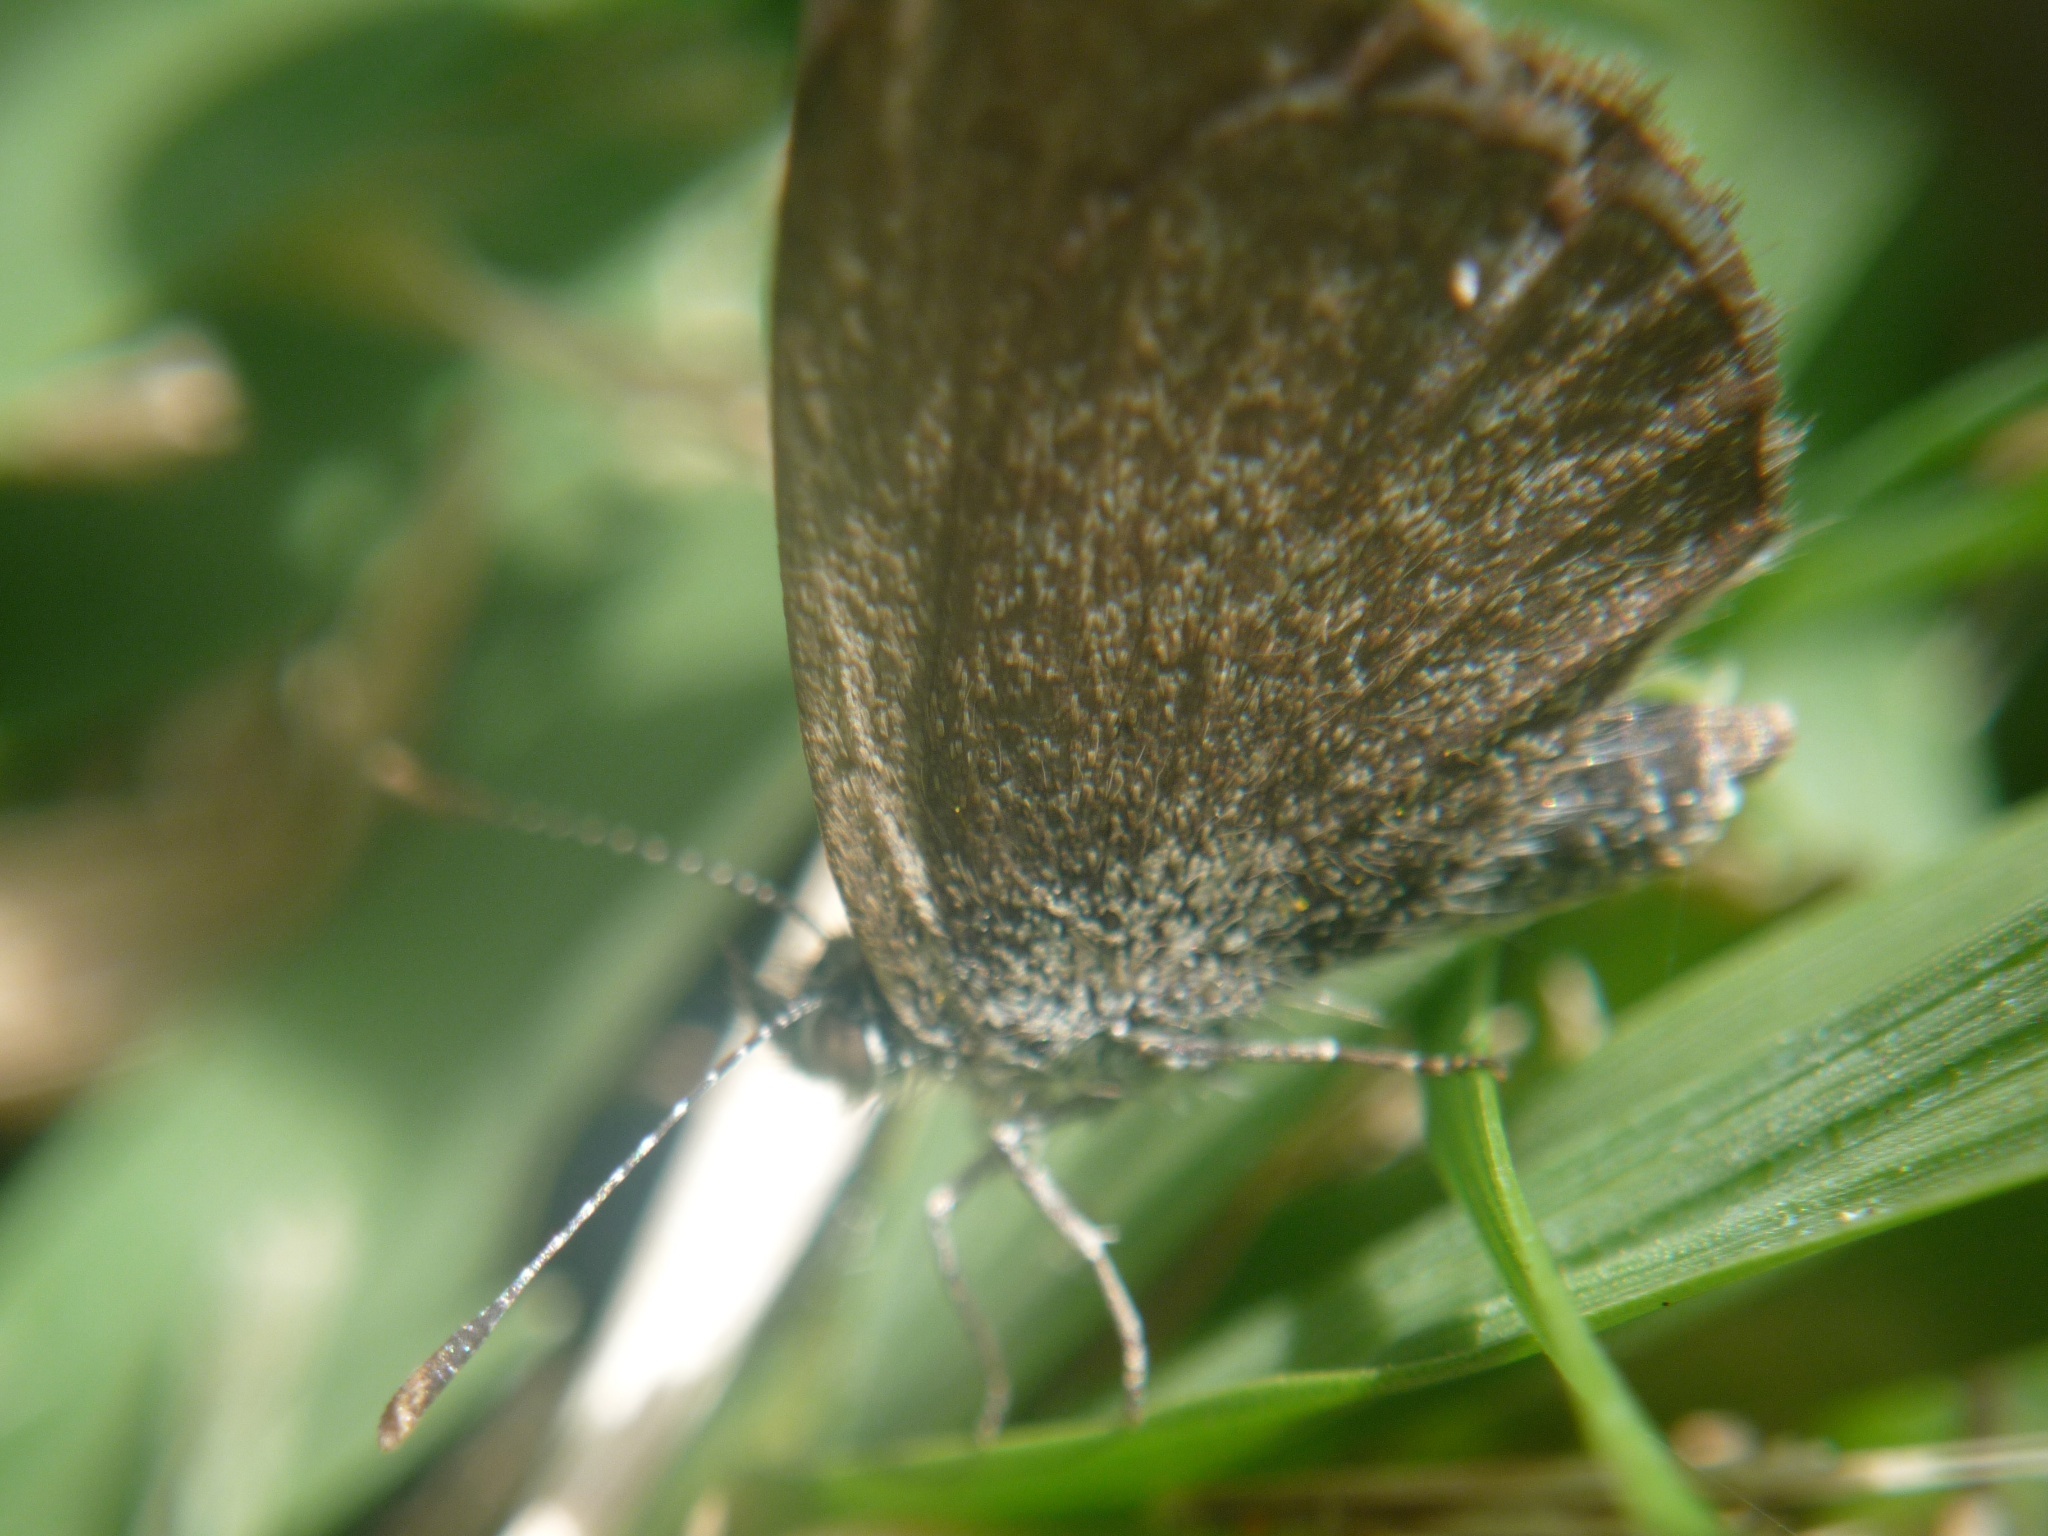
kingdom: Animalia
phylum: Arthropoda
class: Insecta
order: Lepidoptera
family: Lycaenidae
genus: Zizina
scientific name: Zizina labradus
